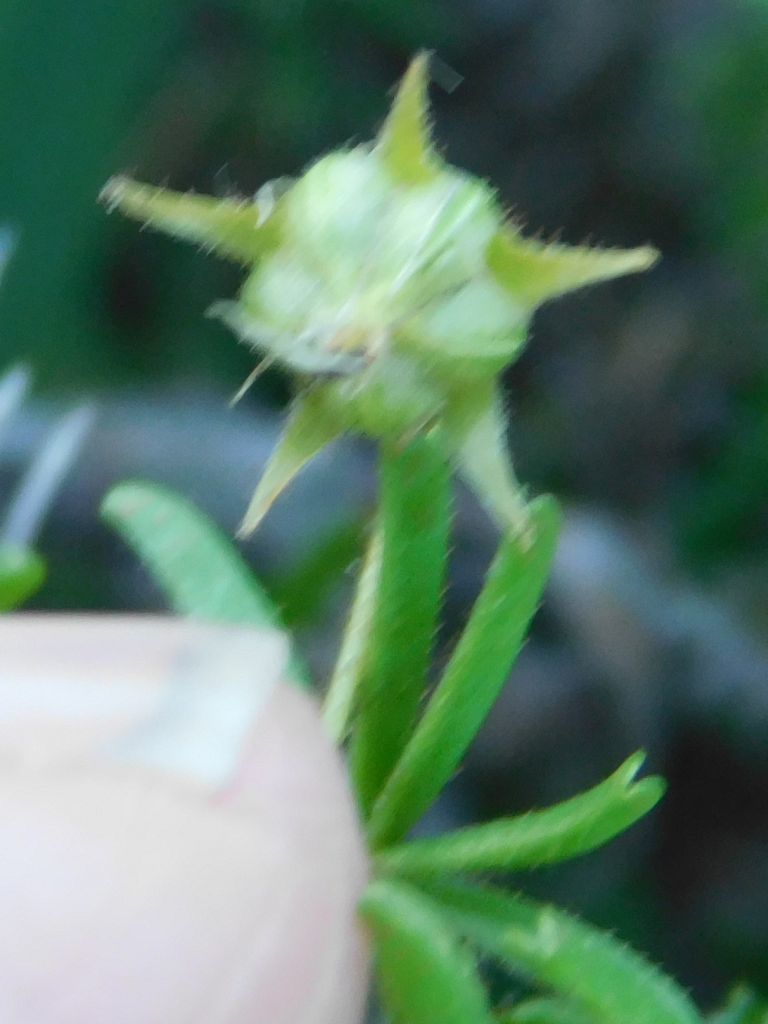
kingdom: Plantae
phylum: Tracheophyta
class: Magnoliopsida
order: Oxalidales
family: Oxalidaceae
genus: Oxalis
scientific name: Oxalis engleriana
